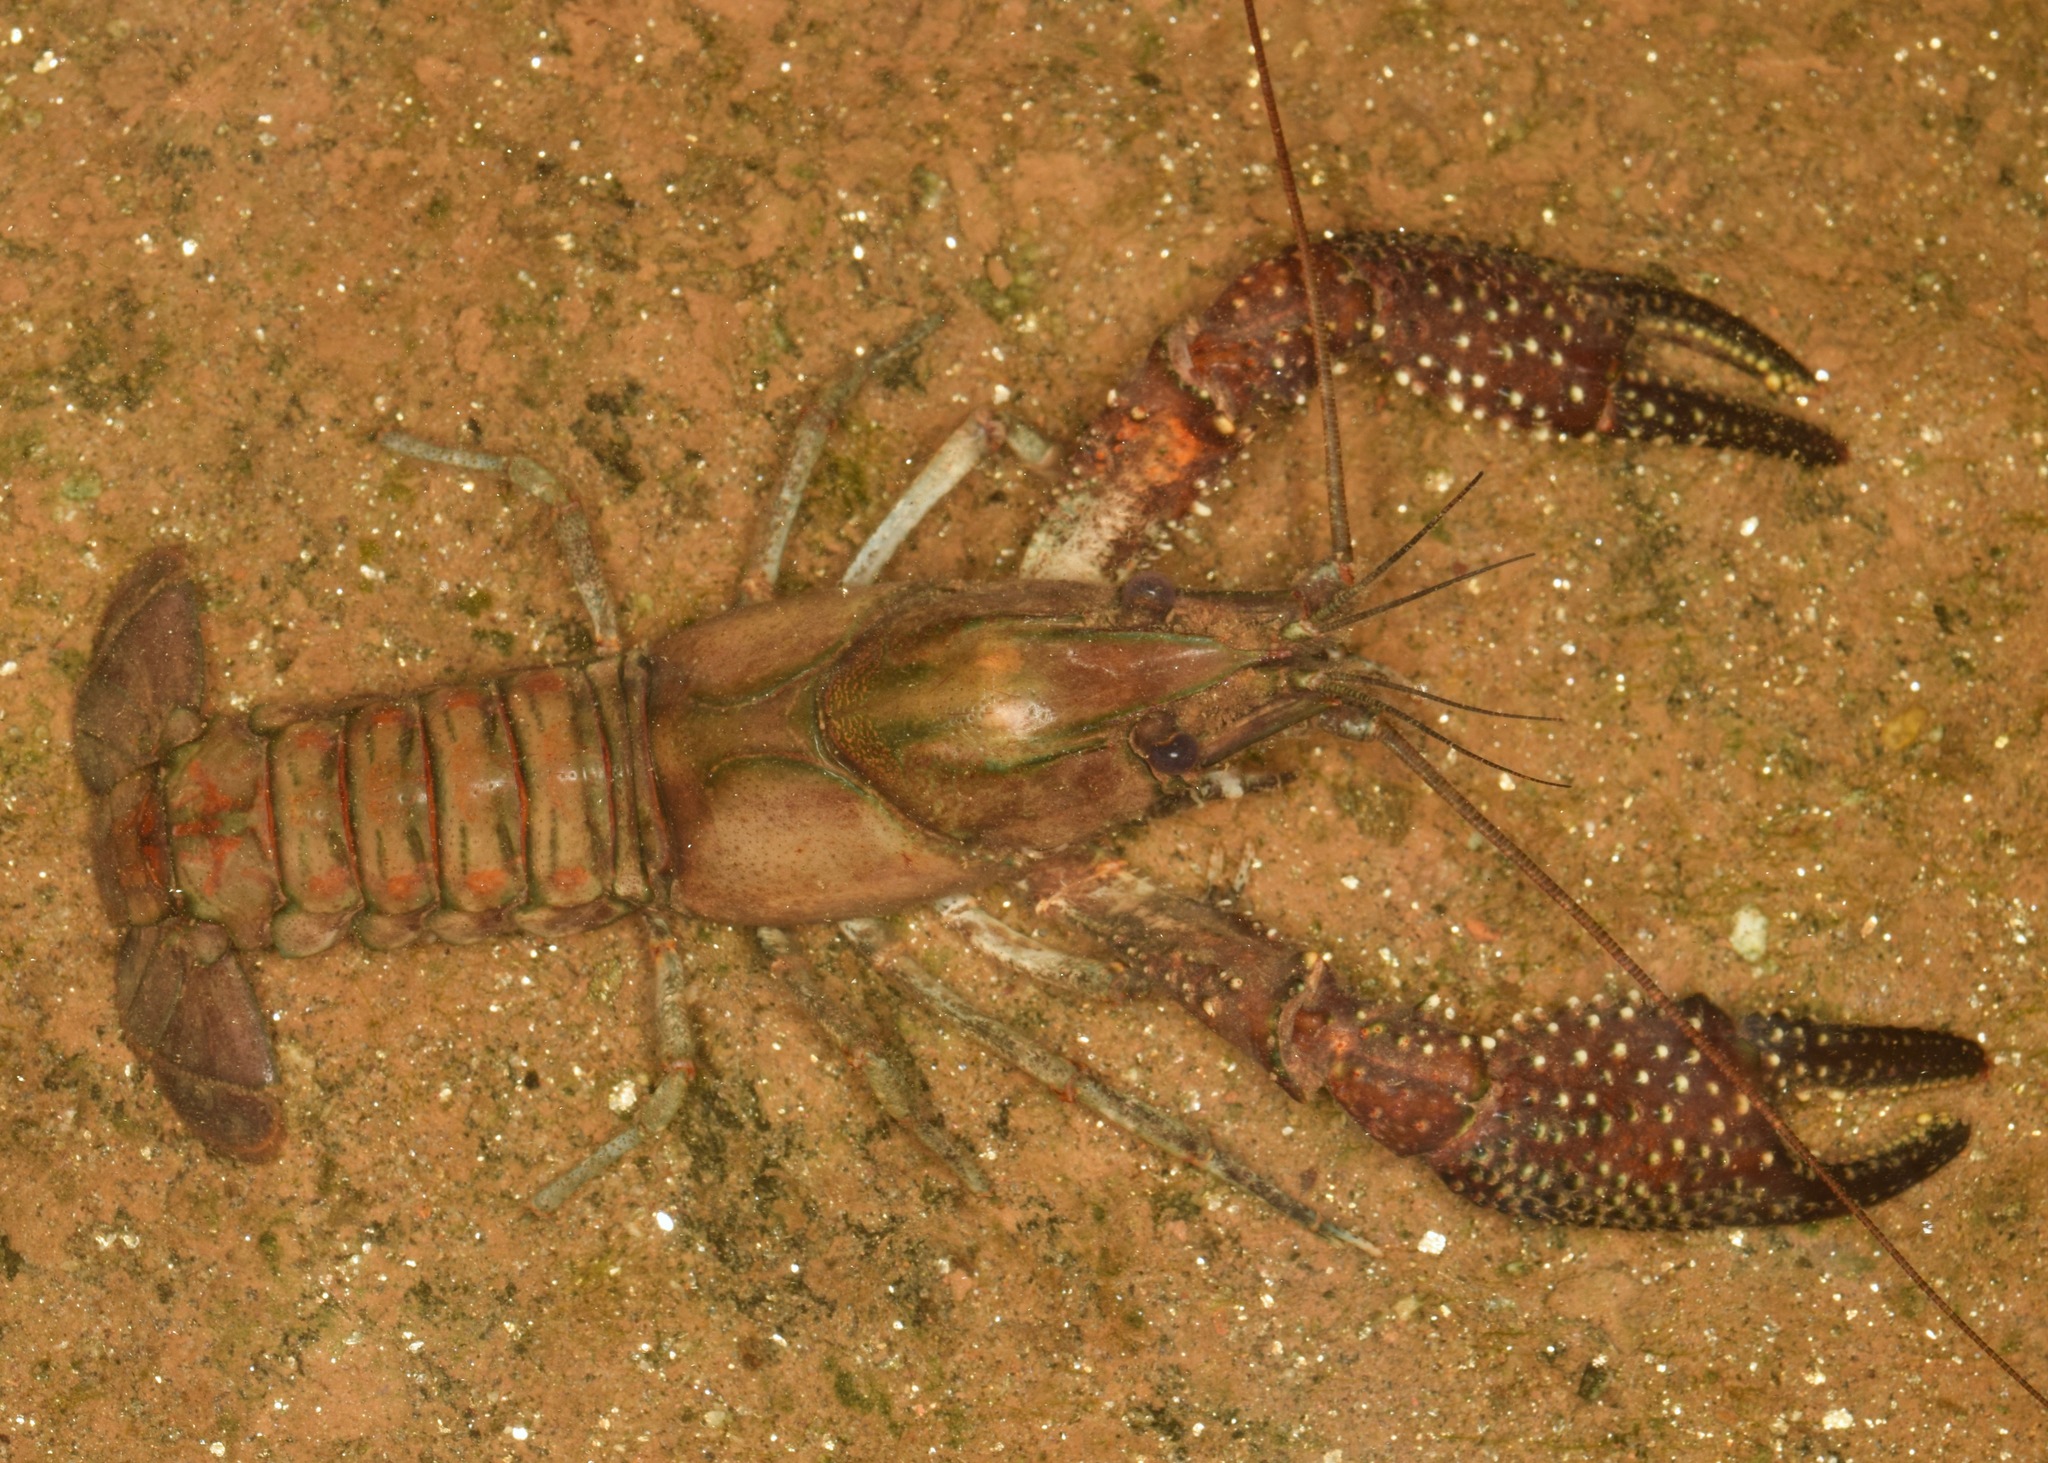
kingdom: Animalia
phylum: Arthropoda
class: Malacostraca
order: Decapoda
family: Cambaridae
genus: Procambarus
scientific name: Procambarus spiculifer
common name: White tubercled crayfish
